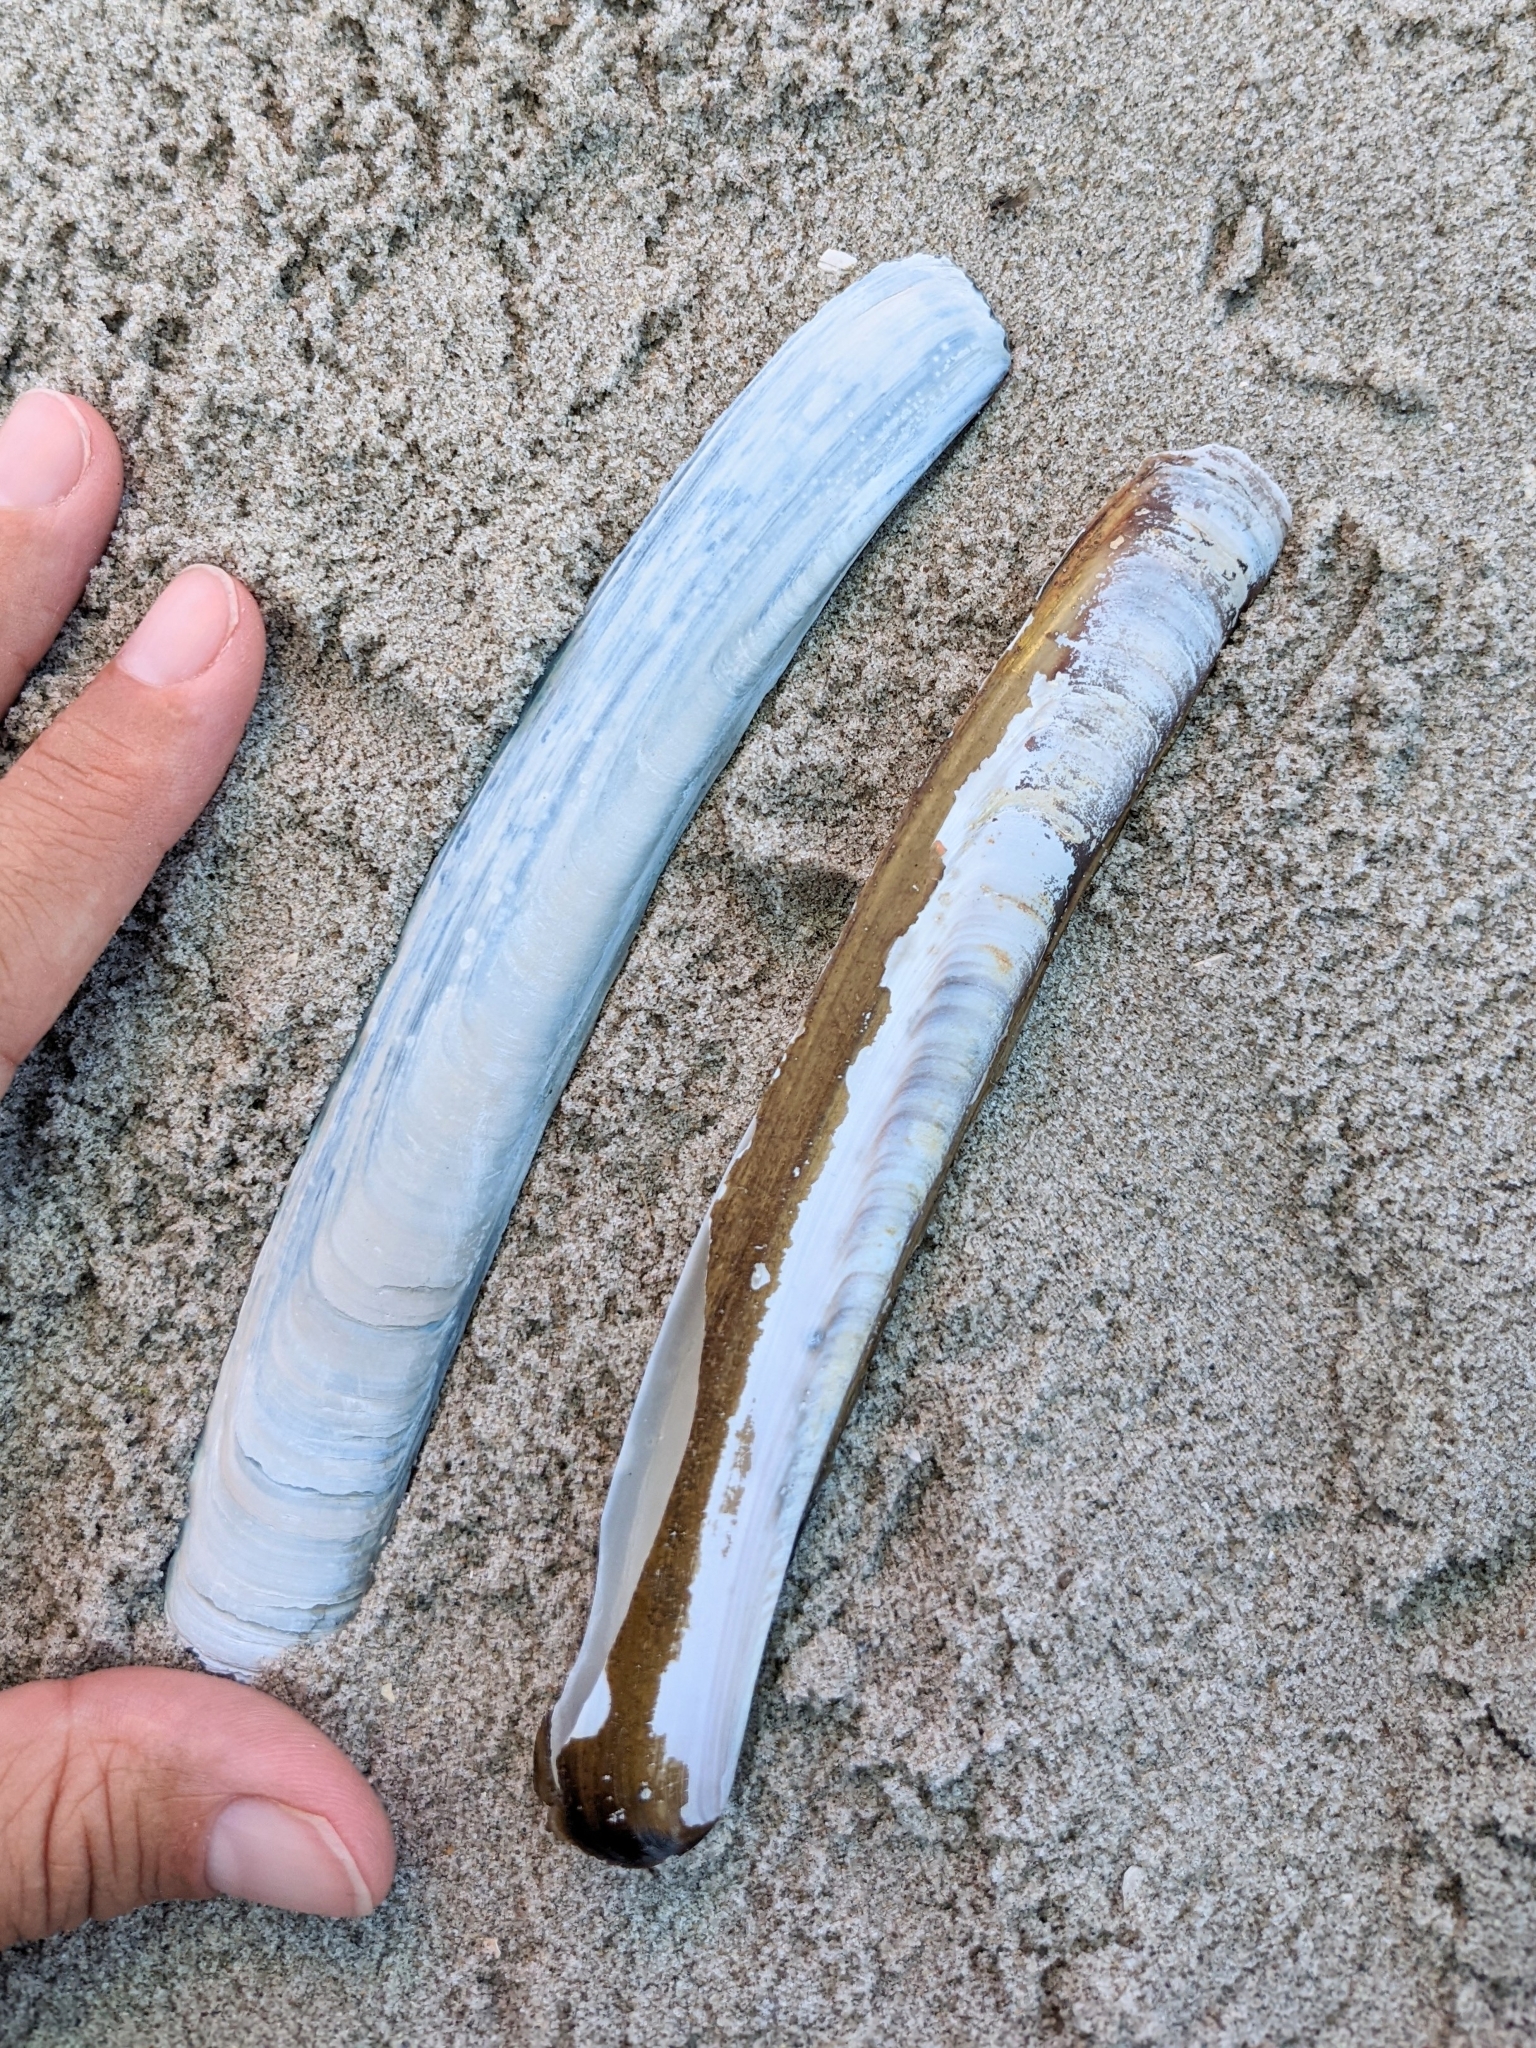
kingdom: Animalia
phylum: Mollusca
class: Bivalvia
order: Adapedonta
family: Pharidae
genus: Ensis
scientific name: Ensis leei
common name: American jack knife clam
